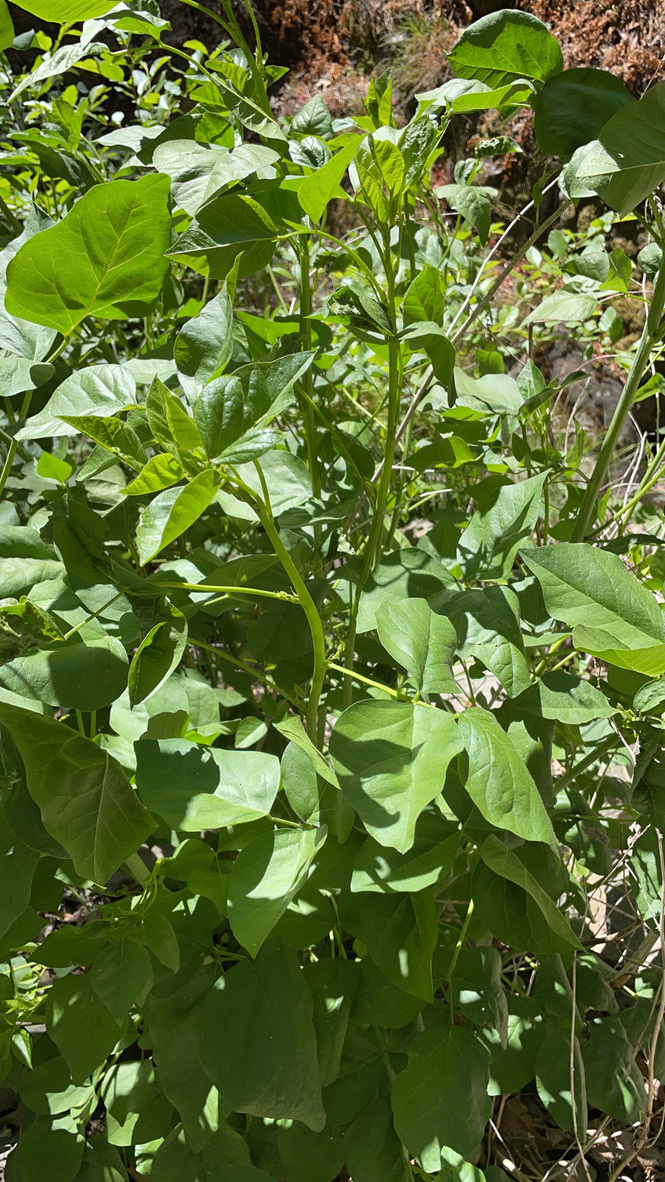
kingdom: Plantae
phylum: Tracheophyta
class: Magnoliopsida
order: Fabales
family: Fabaceae
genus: Hoita
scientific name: Hoita macrostachya
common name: Leatherroot
